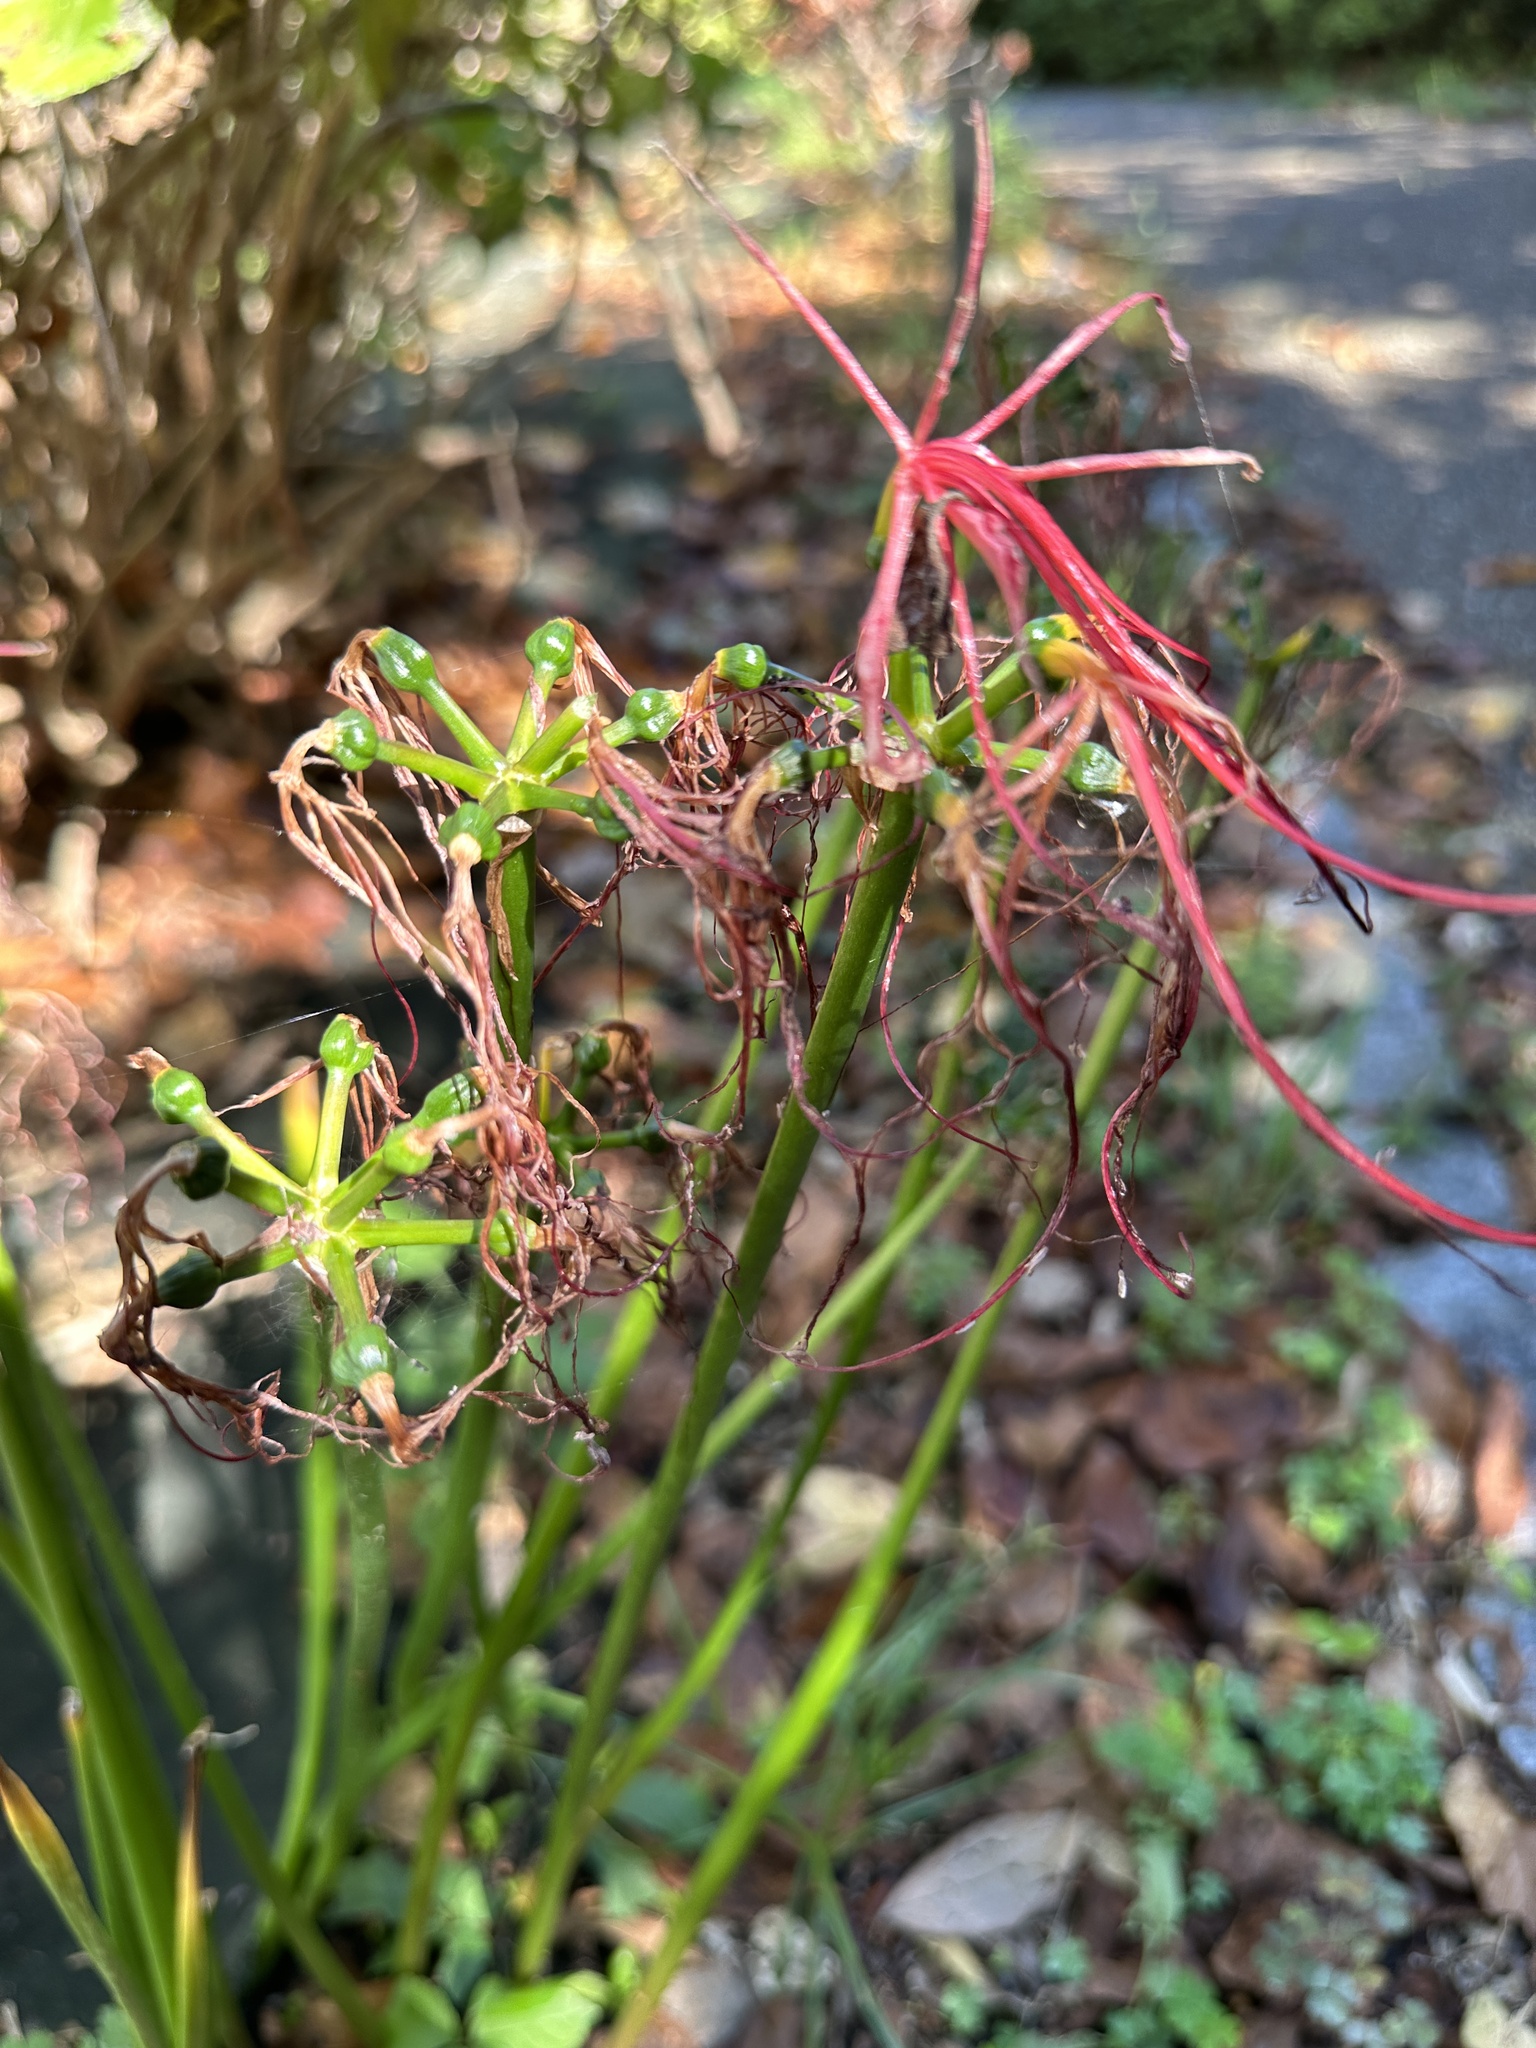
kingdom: Plantae
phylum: Tracheophyta
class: Liliopsida
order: Asparagales
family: Amaryllidaceae
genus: Lycoris
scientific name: Lycoris radiata
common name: Red spider lily
